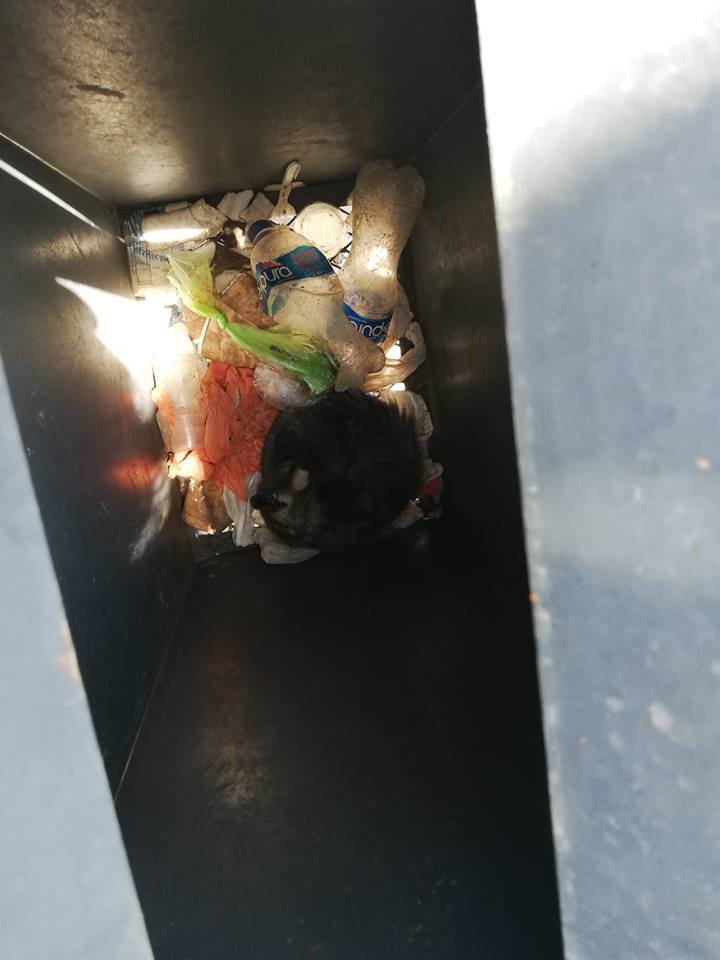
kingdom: Animalia
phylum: Chordata
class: Mammalia
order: Didelphimorphia
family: Didelphidae
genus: Didelphis
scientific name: Didelphis virginiana
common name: Virginia opossum
